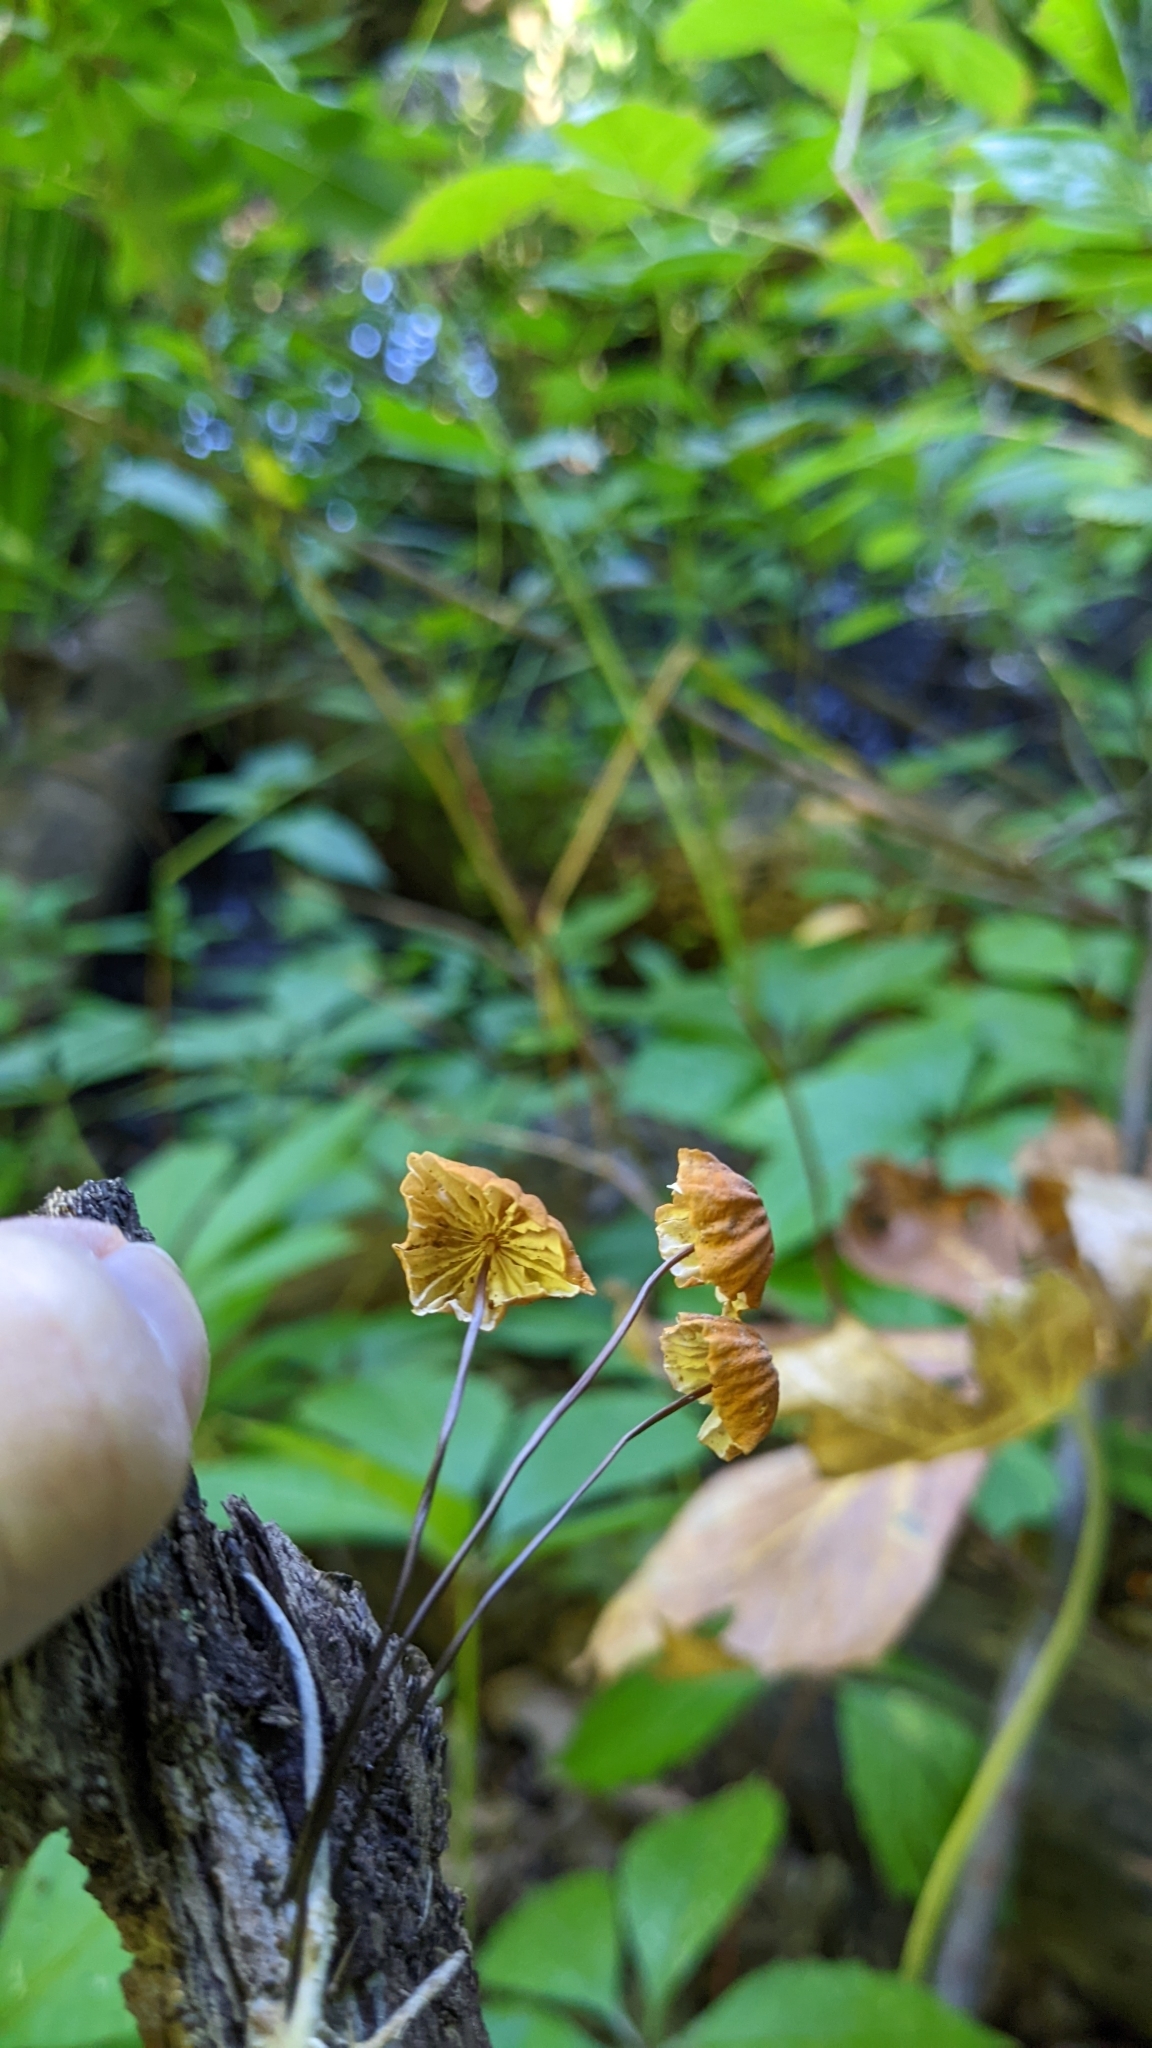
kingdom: Fungi
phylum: Basidiomycota
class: Agaricomycetes
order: Agaricales
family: Marasmiaceae
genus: Marasmius
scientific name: Marasmius siccus
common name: Orange pinwheel
